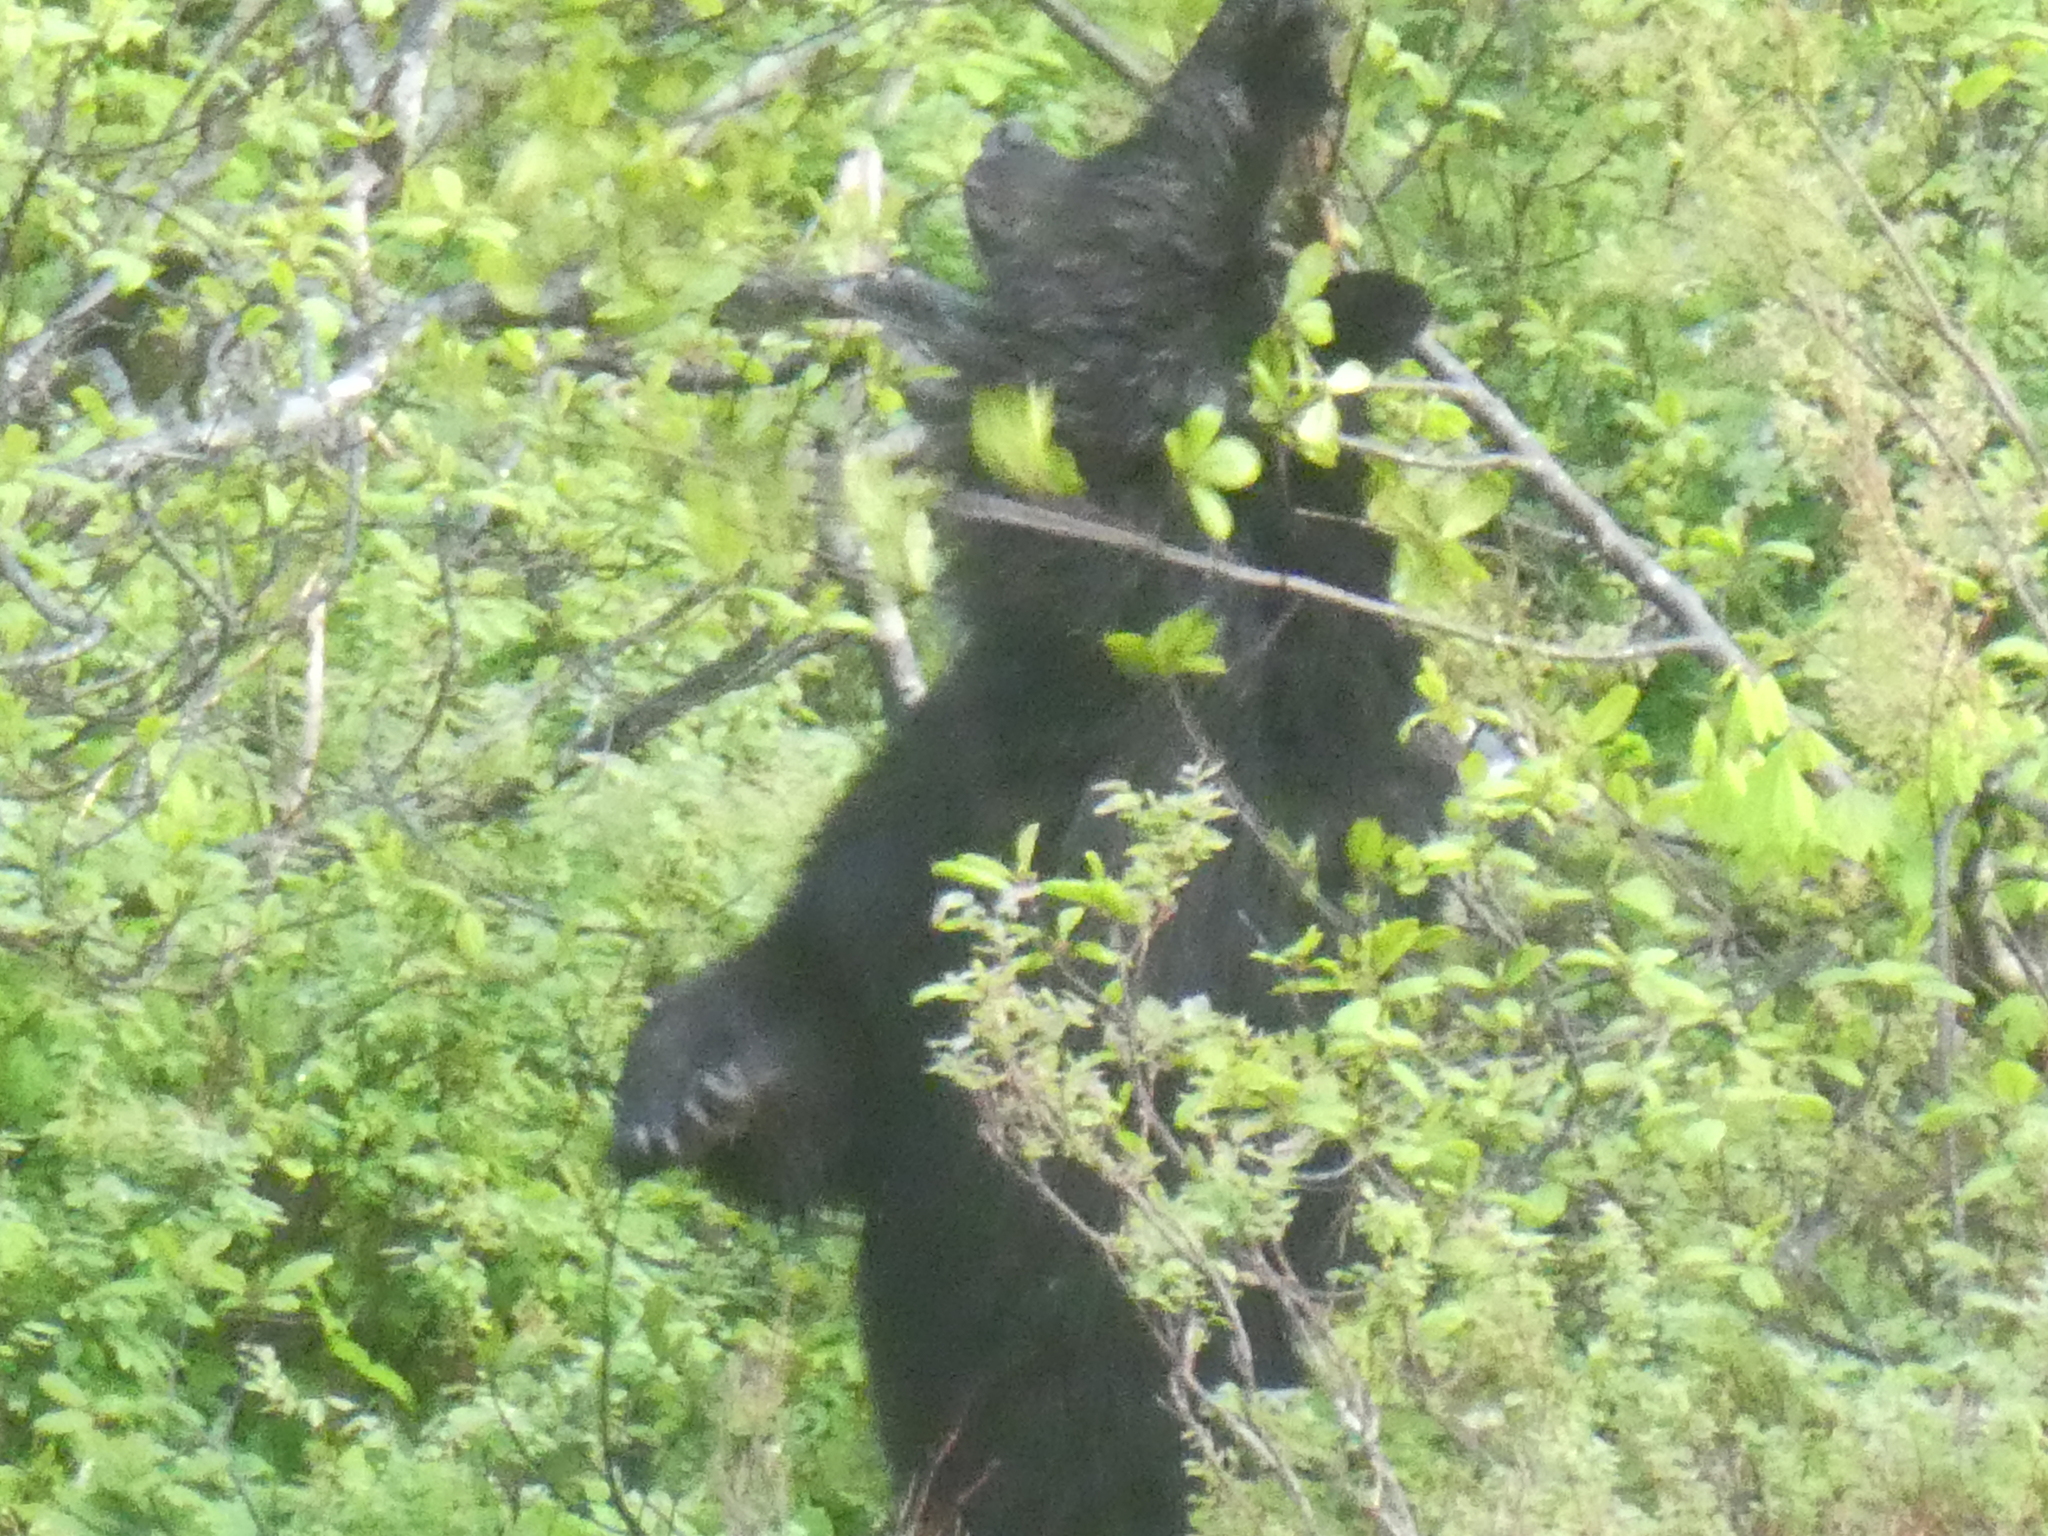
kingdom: Animalia
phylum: Chordata
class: Mammalia
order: Carnivora
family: Ursidae
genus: Ursus
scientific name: Ursus americanus
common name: American black bear
